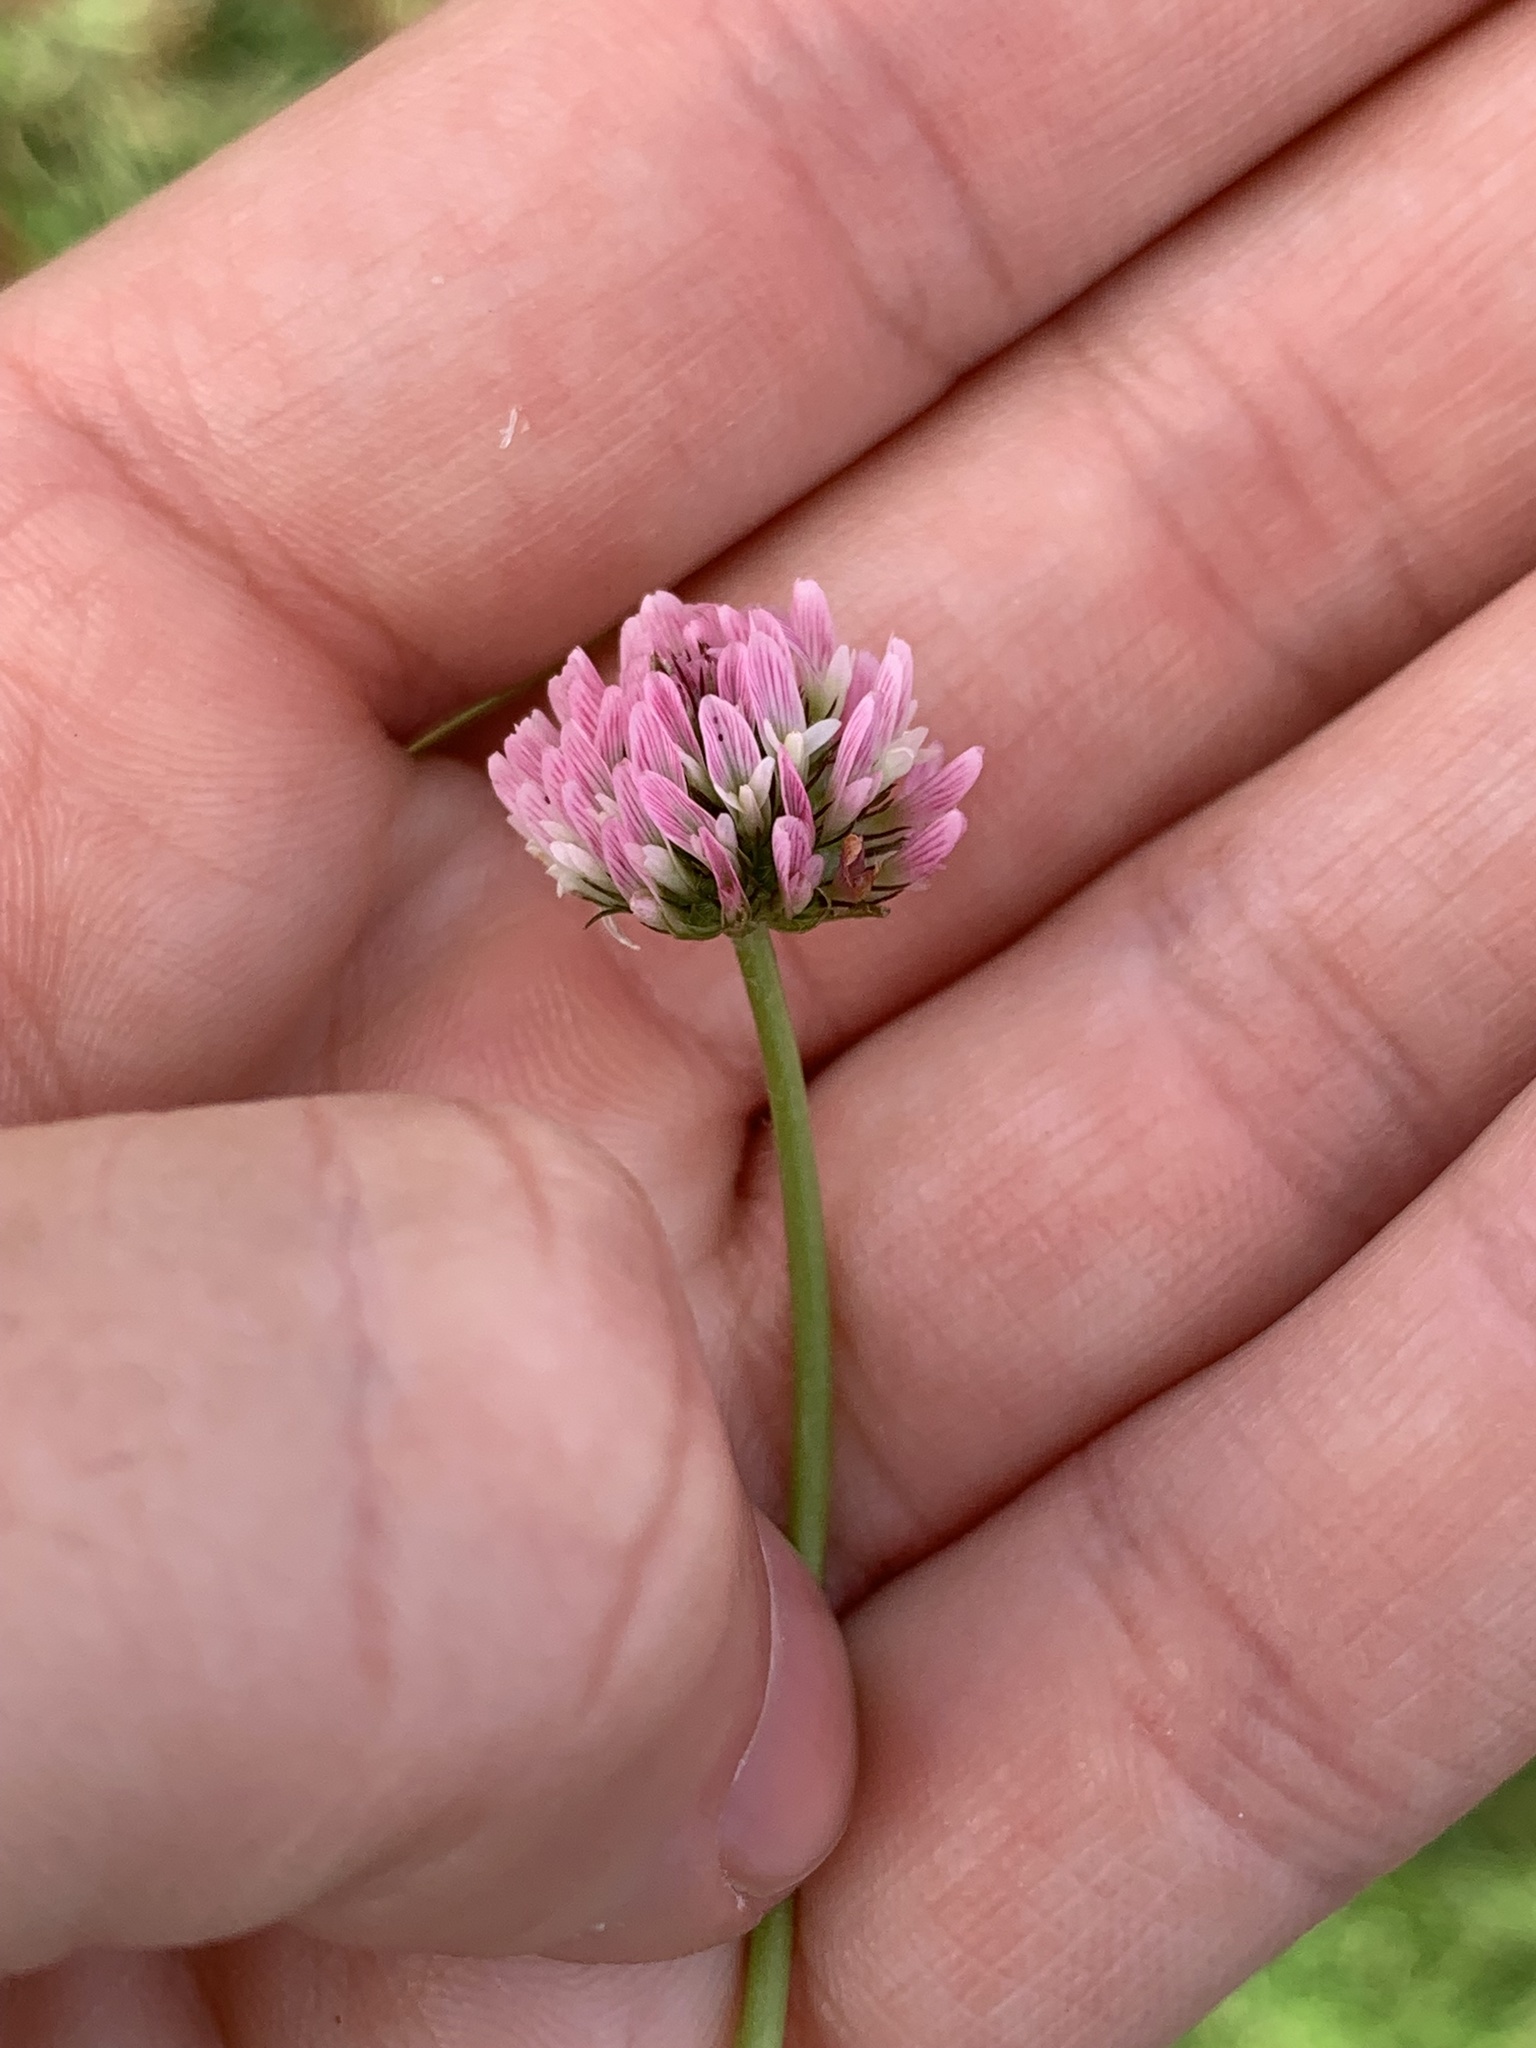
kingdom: Plantae
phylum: Tracheophyta
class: Magnoliopsida
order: Fabales
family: Fabaceae
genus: Trifolium
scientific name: Trifolium fragiferum
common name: Strawberry clover
